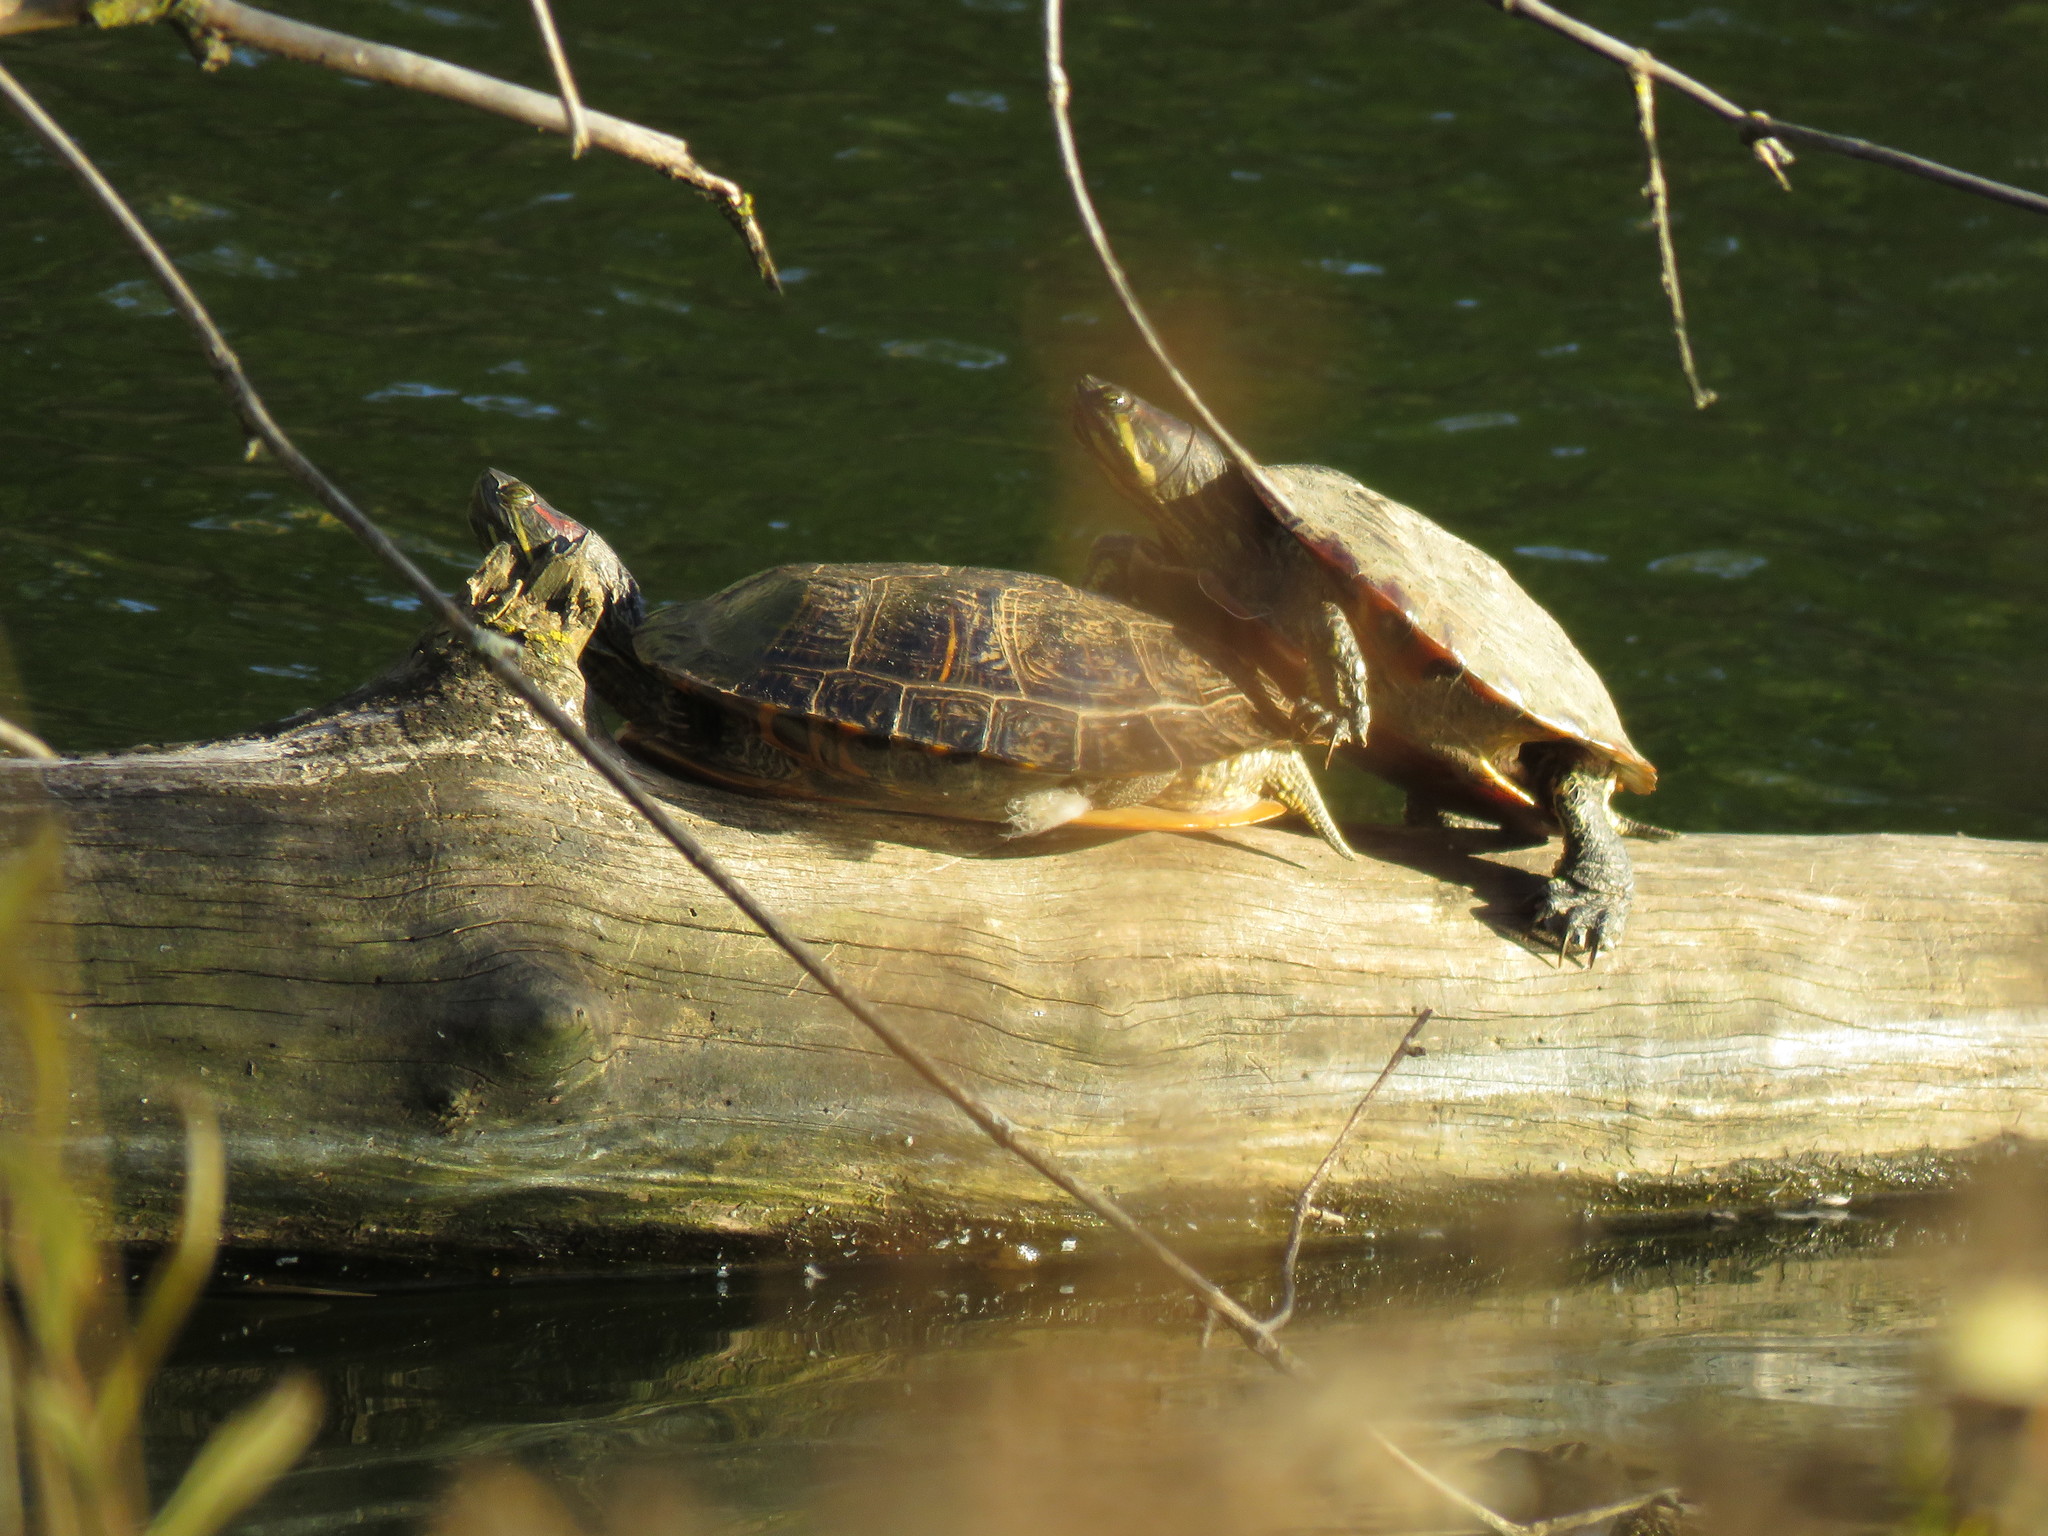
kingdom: Animalia
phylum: Chordata
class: Testudines
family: Emydidae
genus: Trachemys
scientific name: Trachemys scripta
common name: Slider
